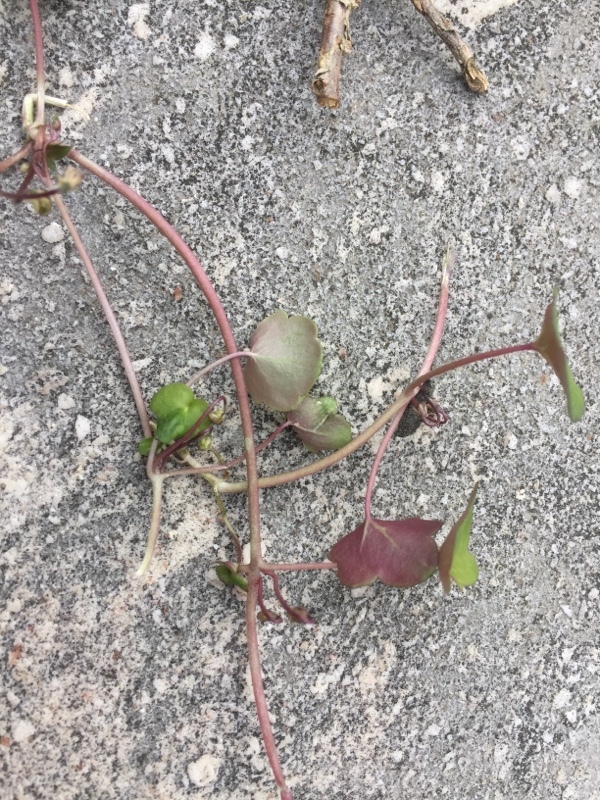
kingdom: Plantae
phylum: Tracheophyta
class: Magnoliopsida
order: Lamiales
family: Plantaginaceae
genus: Cymbalaria
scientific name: Cymbalaria muralis
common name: Ivy-leaved toadflax
